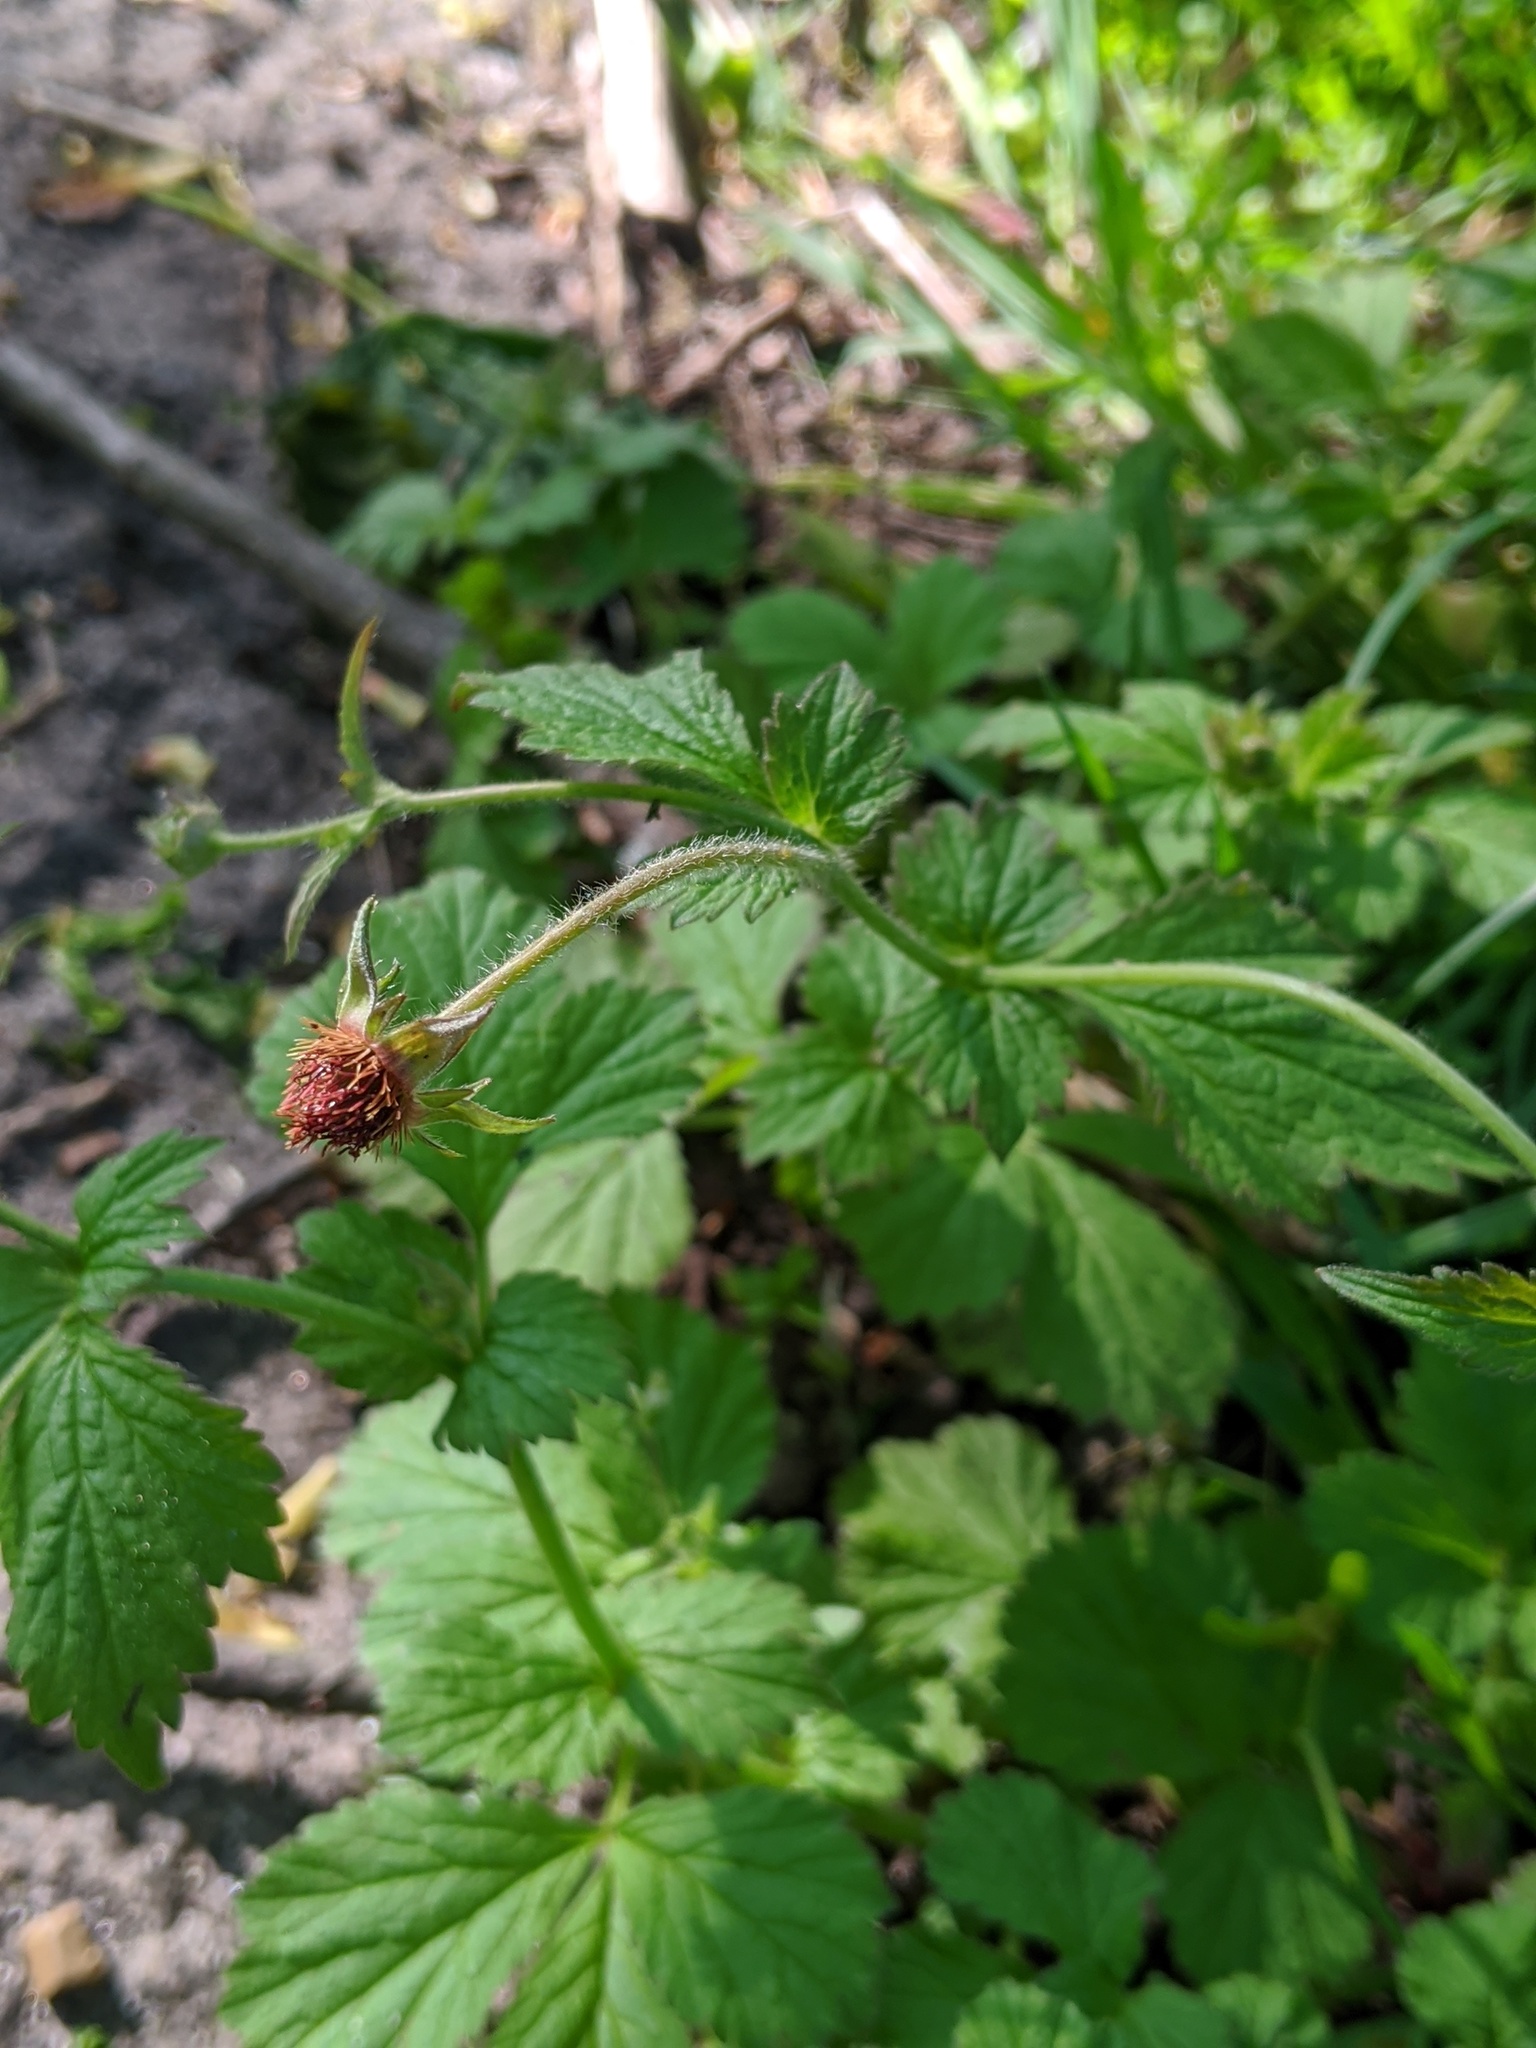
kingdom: Plantae
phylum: Tracheophyta
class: Magnoliopsida
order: Rosales
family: Rosaceae
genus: Geum
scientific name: Geum urbanum
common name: Wood avens
